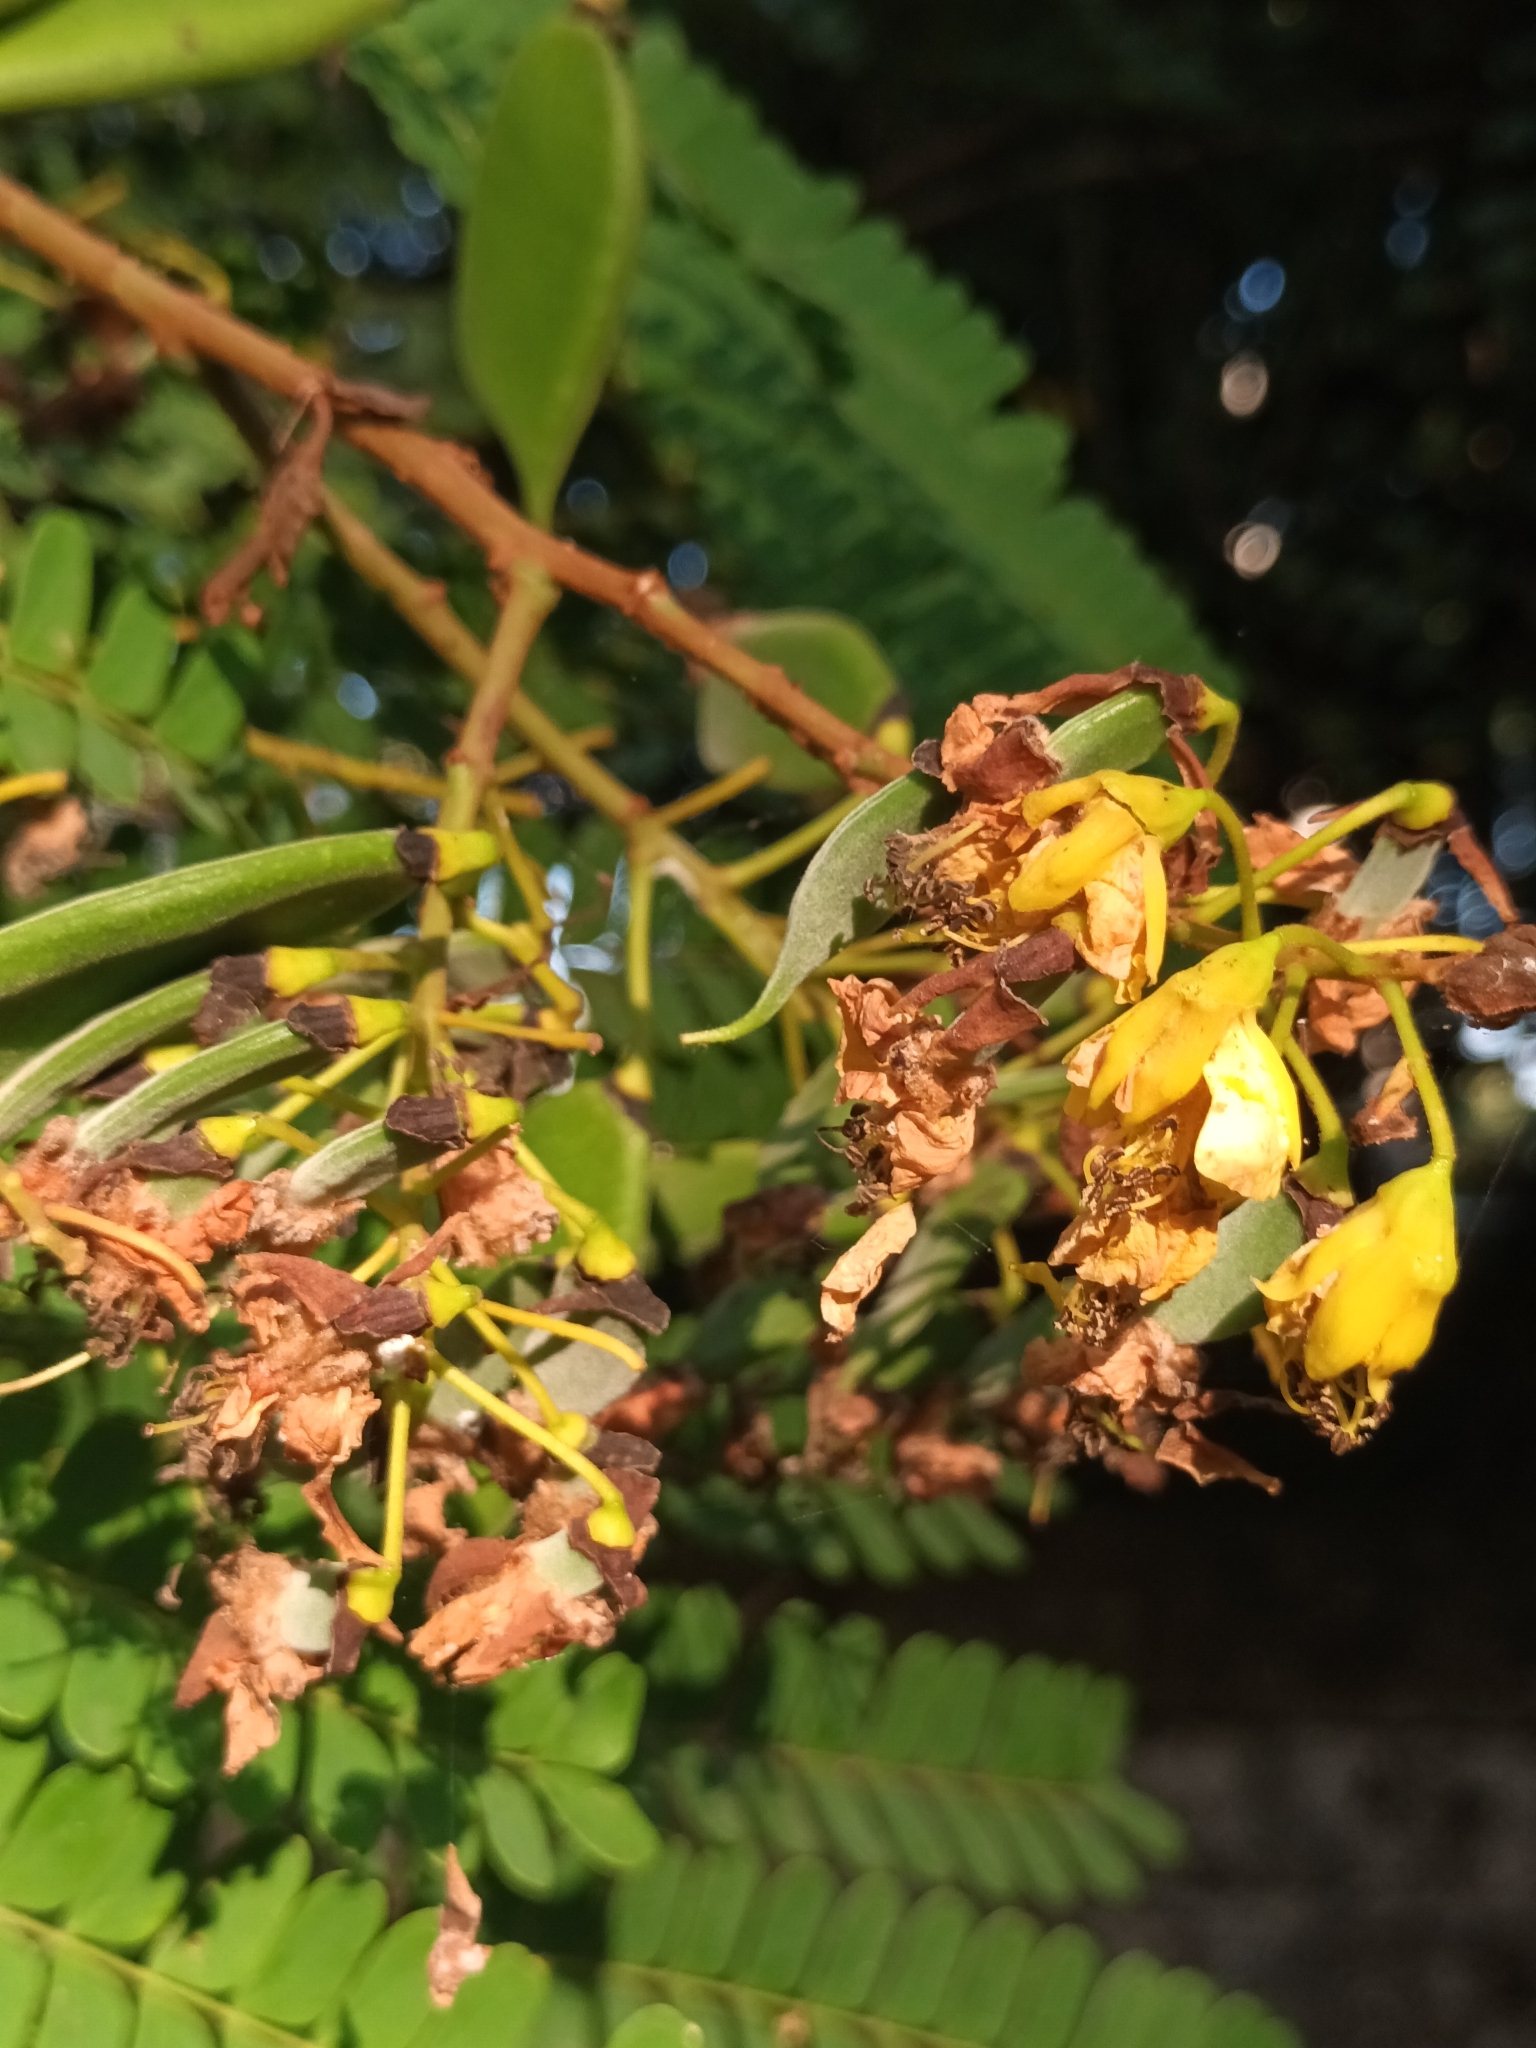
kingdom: Plantae
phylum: Tracheophyta
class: Magnoliopsida
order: Fabales
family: Fabaceae
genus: Biancaea
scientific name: Biancaea sappan
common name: Sappan
